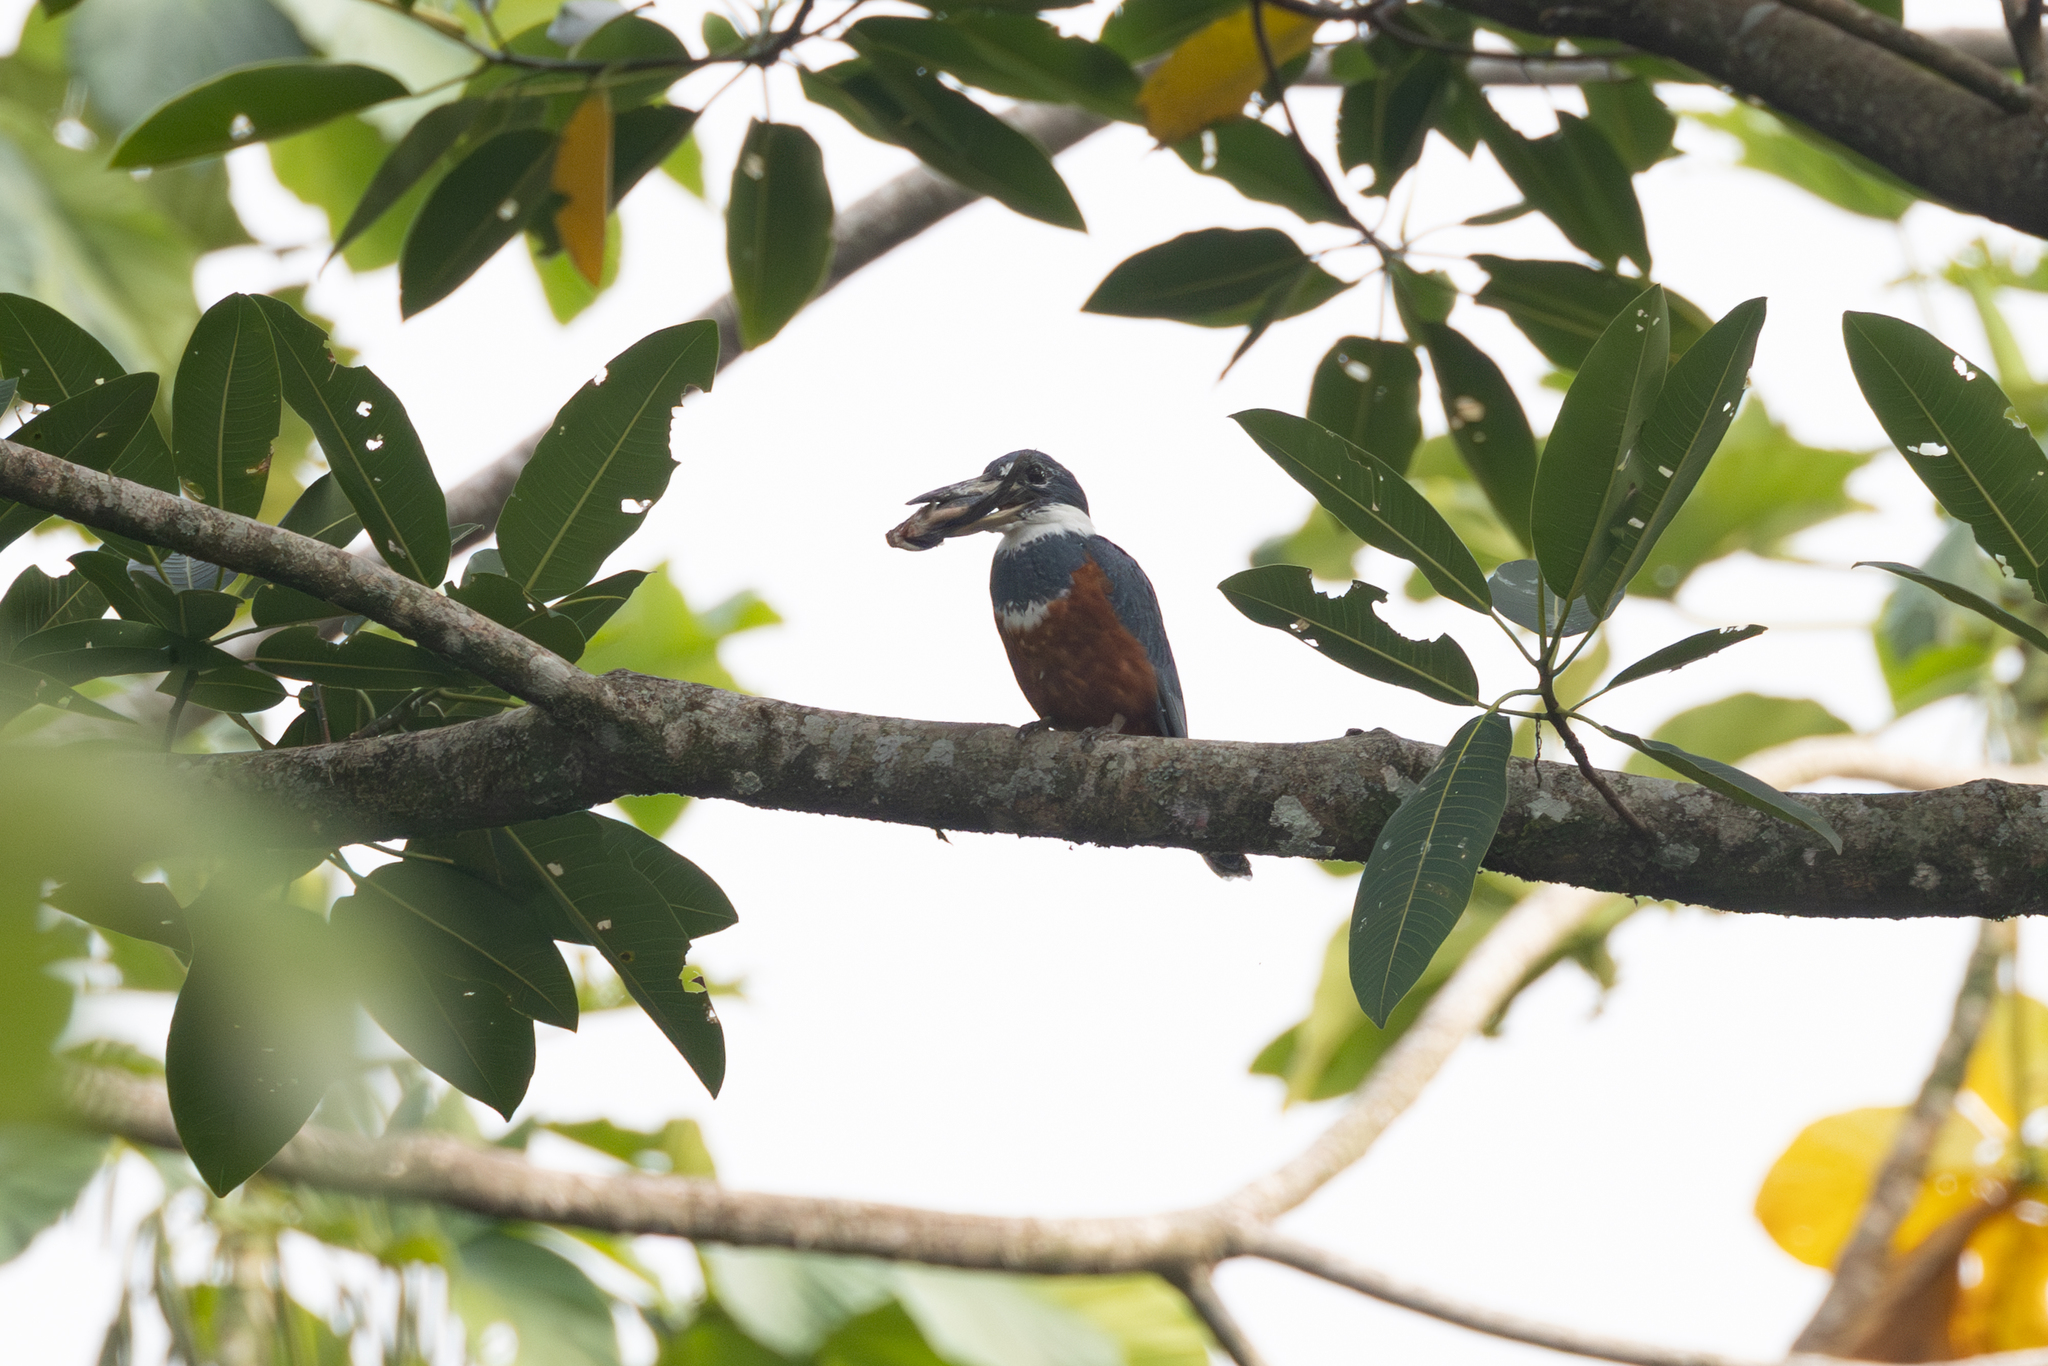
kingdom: Animalia
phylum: Chordata
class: Aves
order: Coraciiformes
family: Alcedinidae
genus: Megaceryle
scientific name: Megaceryle torquata
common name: Ringed kingfisher
